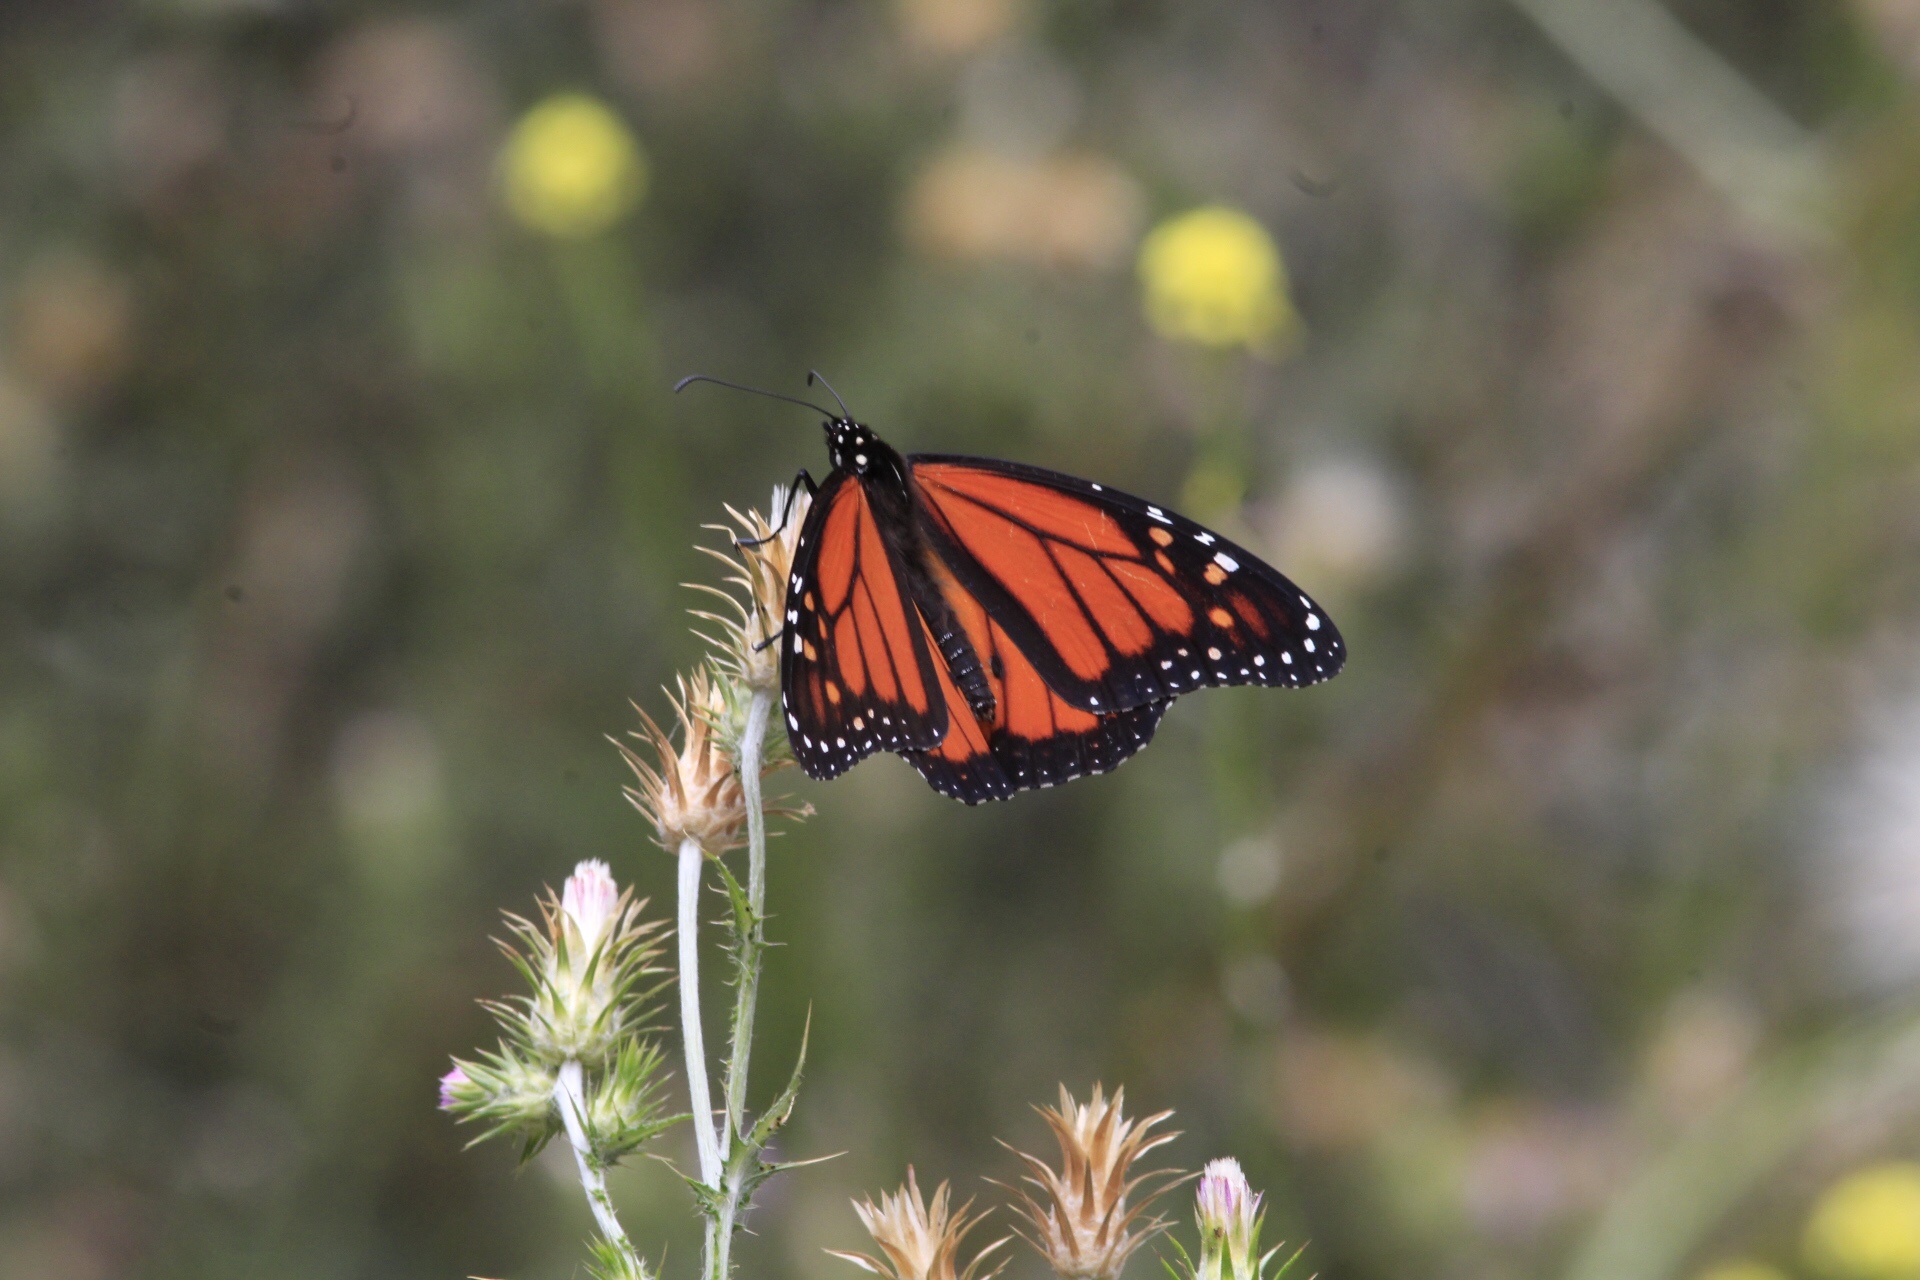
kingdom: Animalia
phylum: Arthropoda
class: Insecta
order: Lepidoptera
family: Nymphalidae
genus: Danaus
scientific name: Danaus plexippus
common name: Monarch
